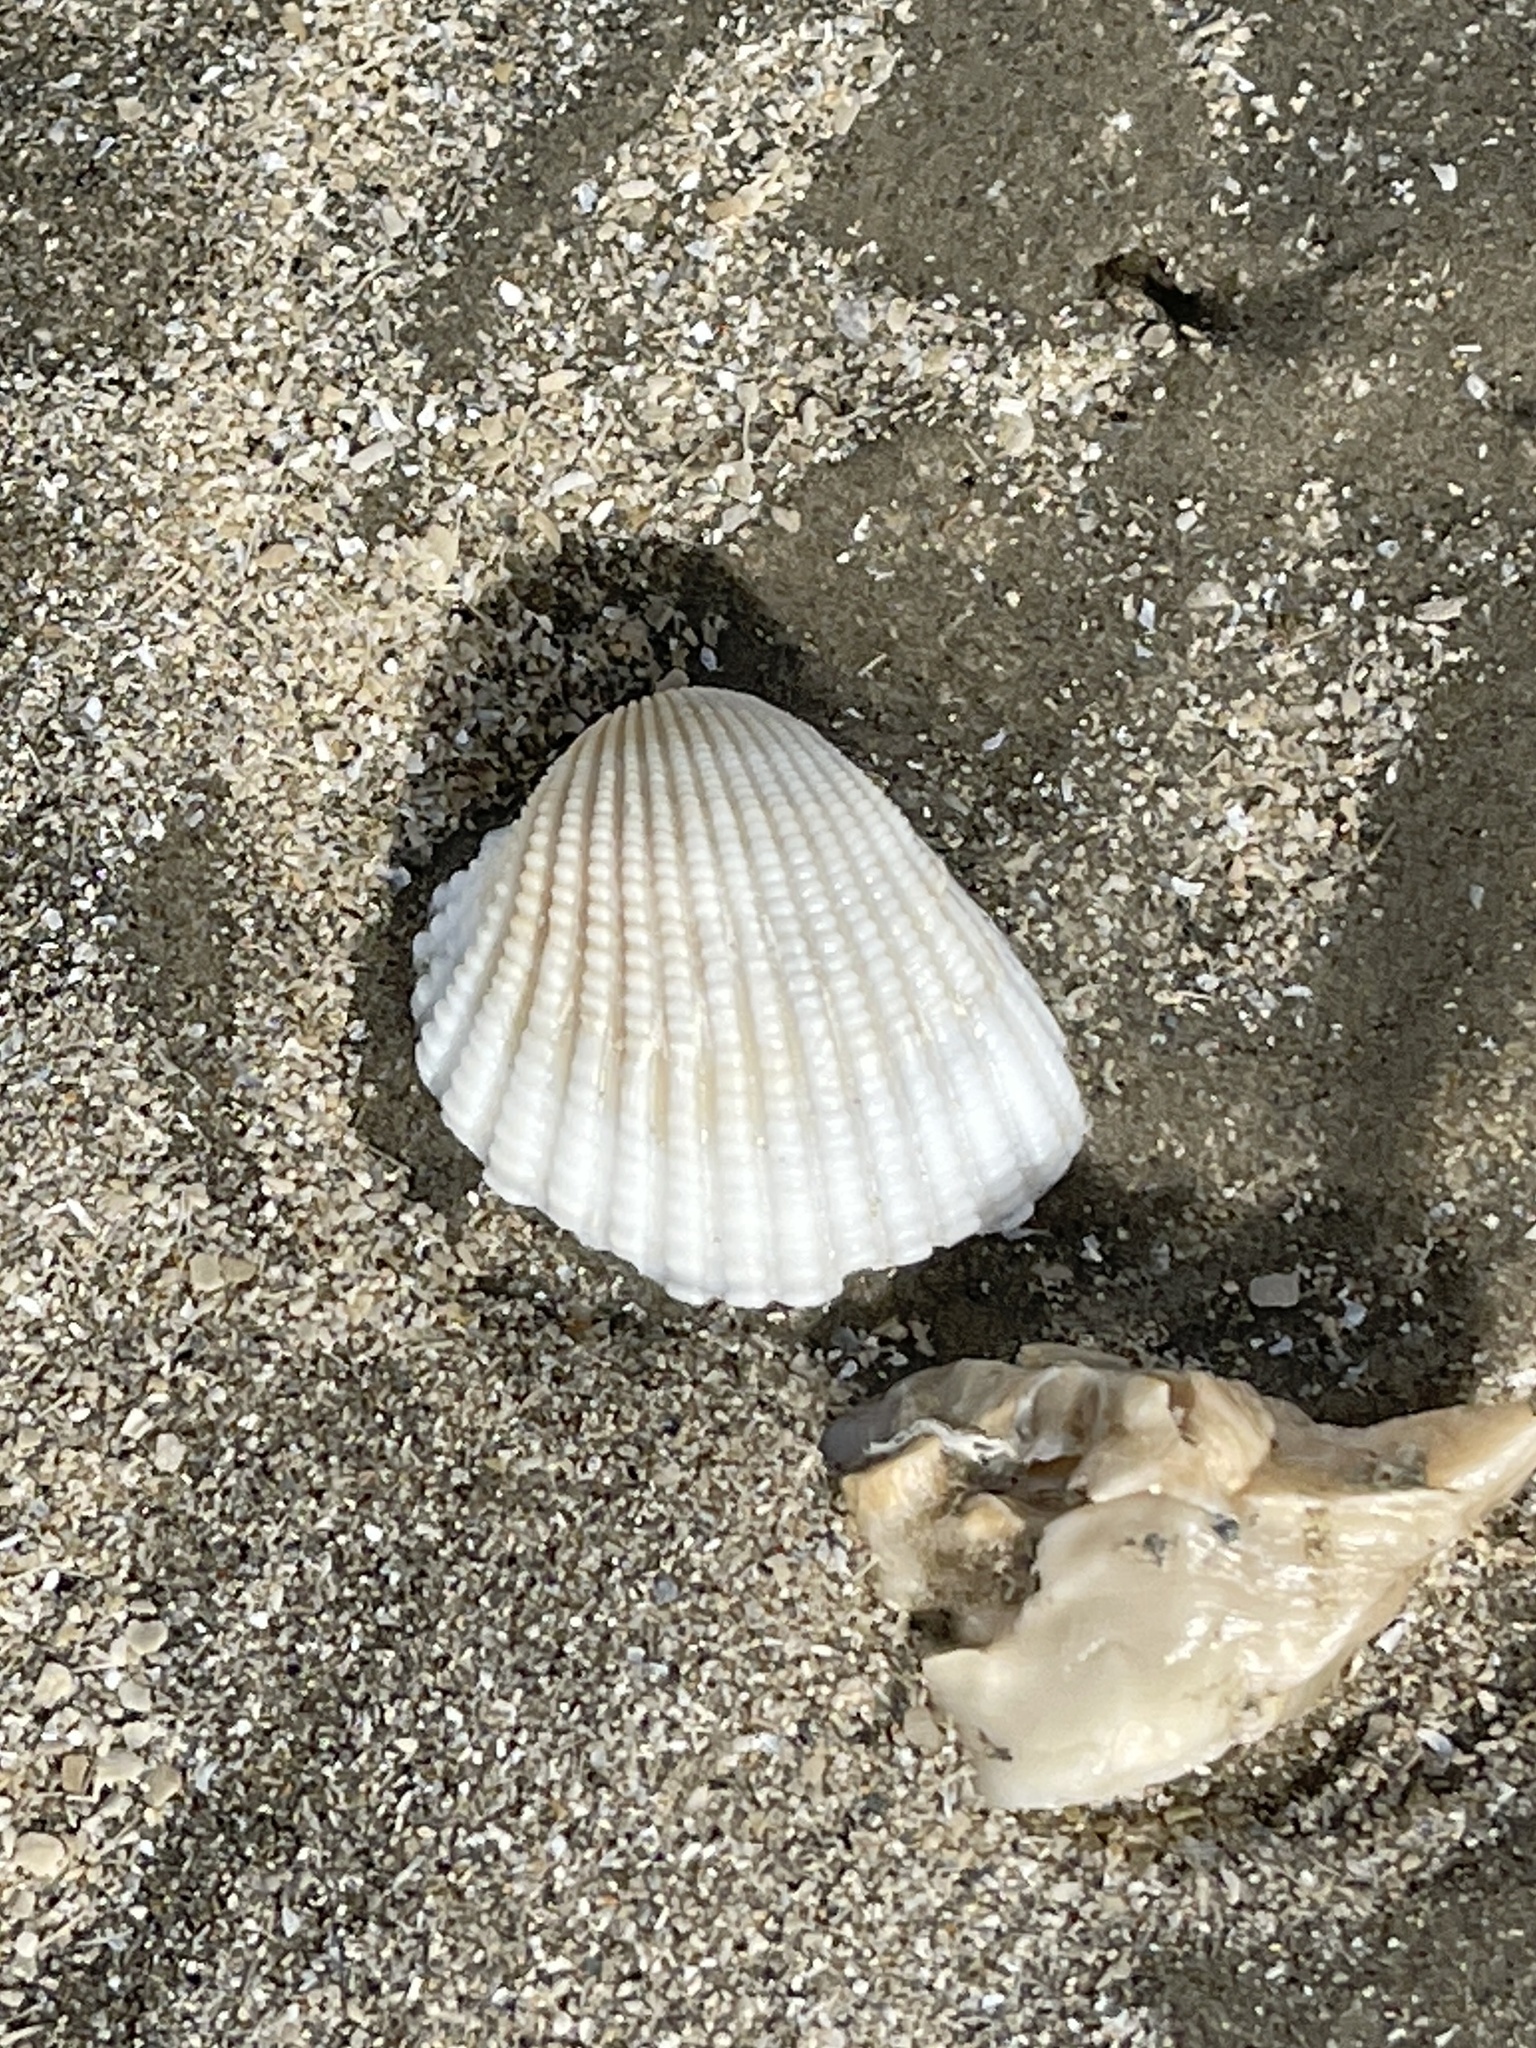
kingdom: Animalia
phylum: Mollusca
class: Bivalvia
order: Arcida
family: Arcidae
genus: Anadara
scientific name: Anadara chemnitzii
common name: Chemnitz's triangular ark
